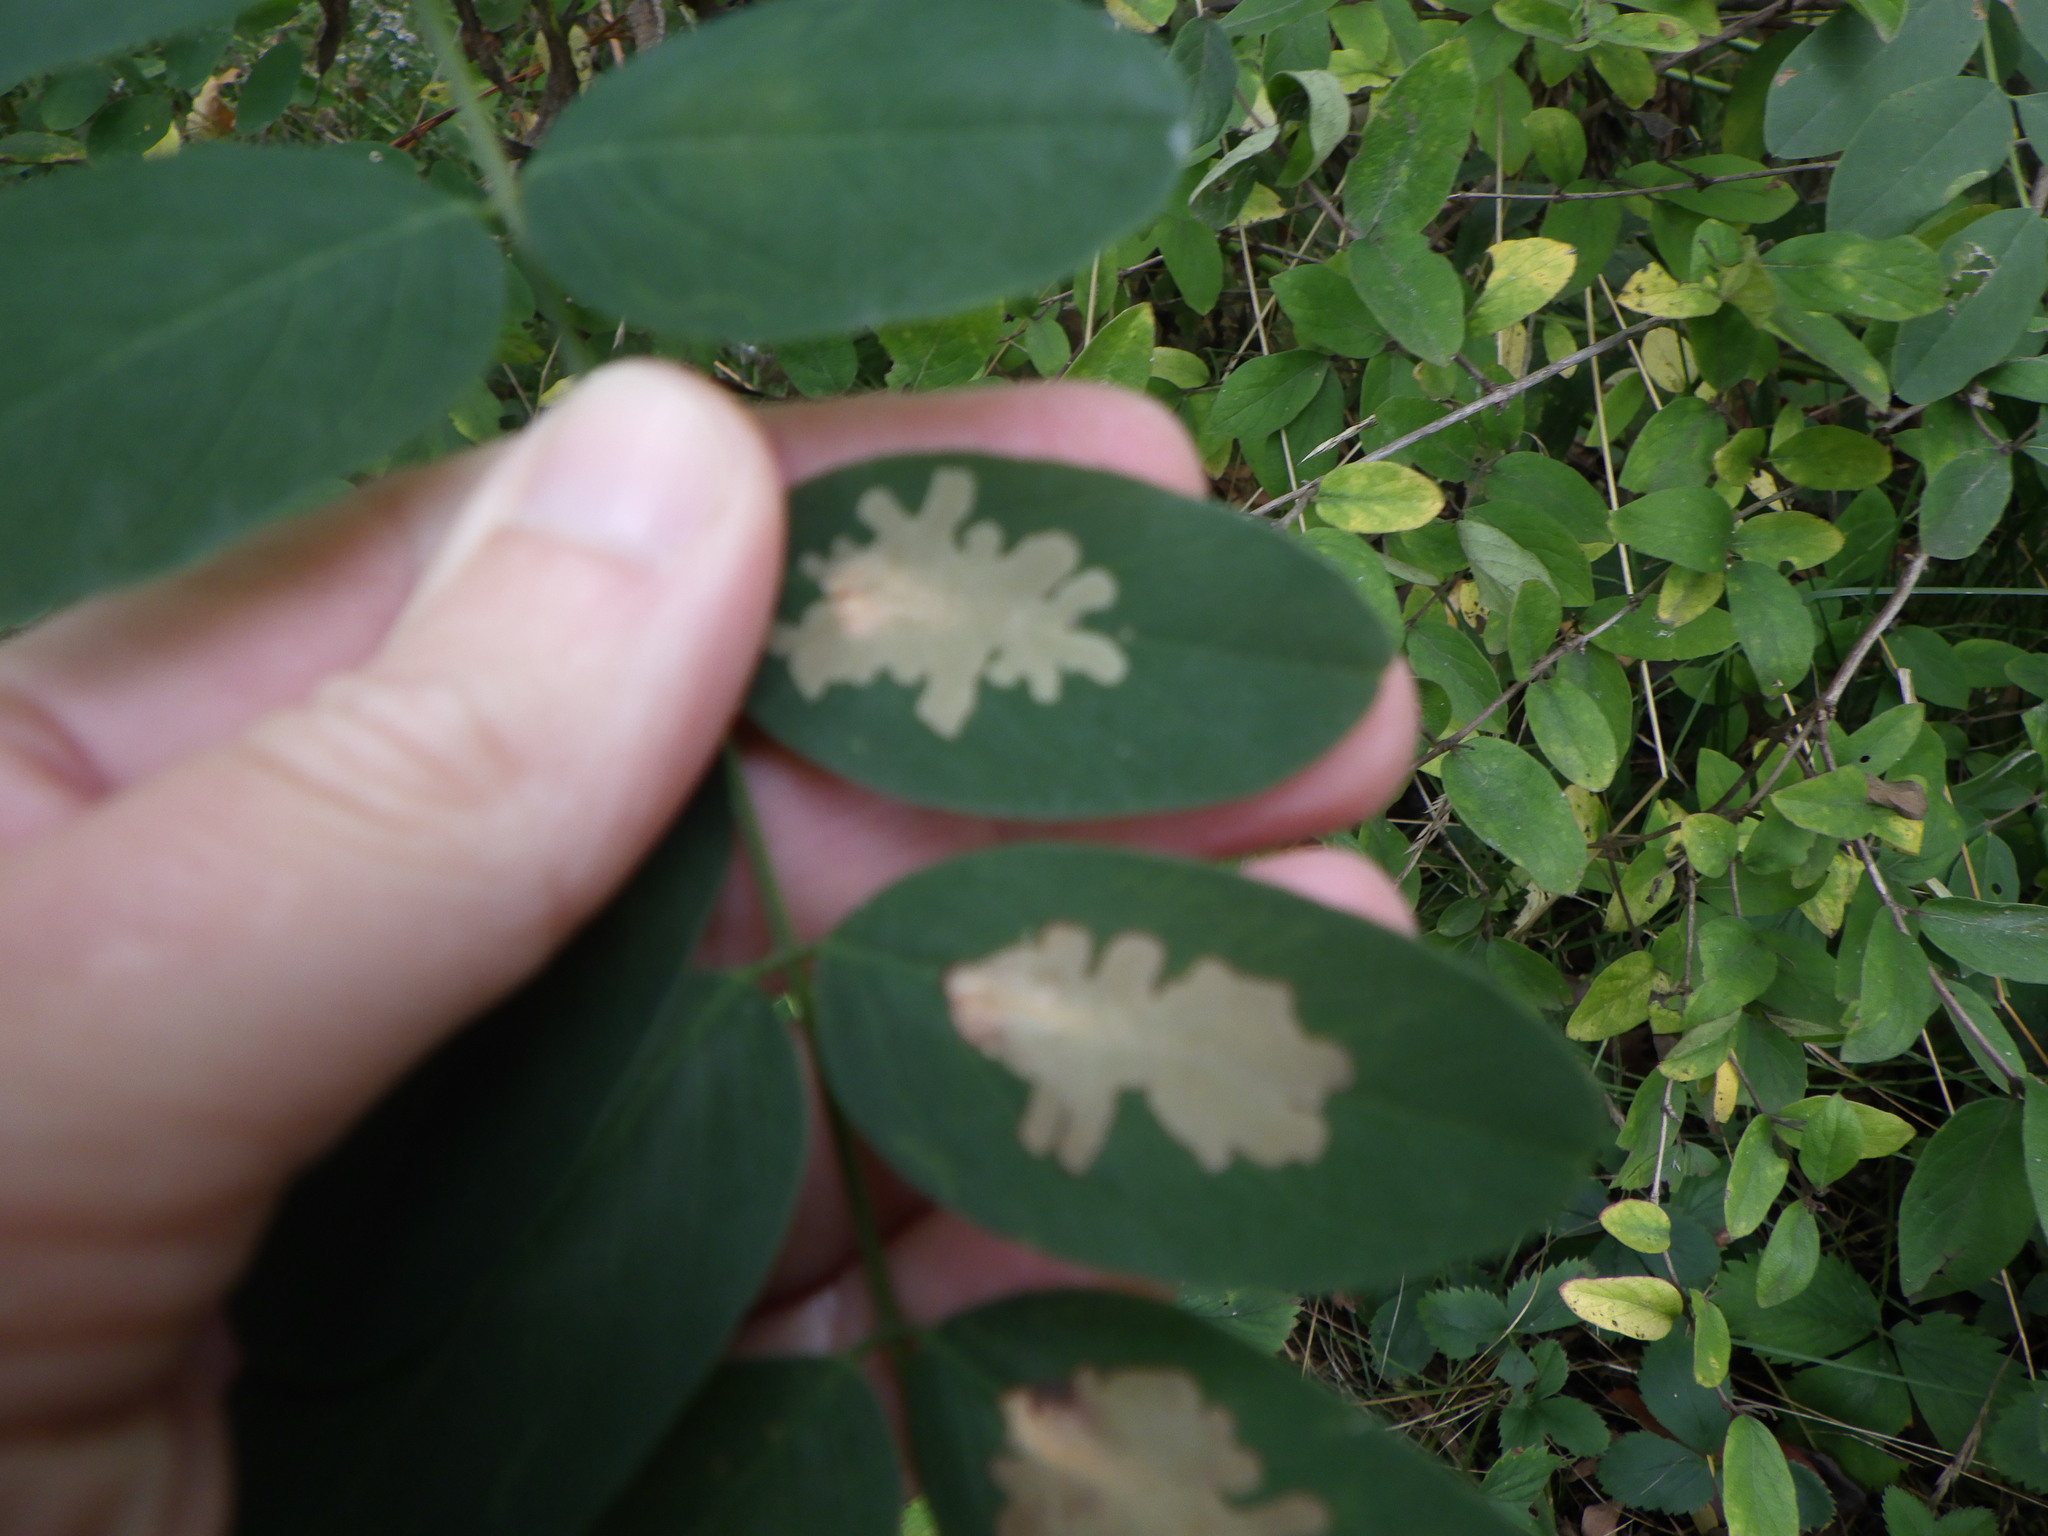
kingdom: Animalia
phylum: Arthropoda
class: Insecta
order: Lepidoptera
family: Gracillariidae
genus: Parectopa
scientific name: Parectopa robiniella
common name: Locust digitate leafminer
